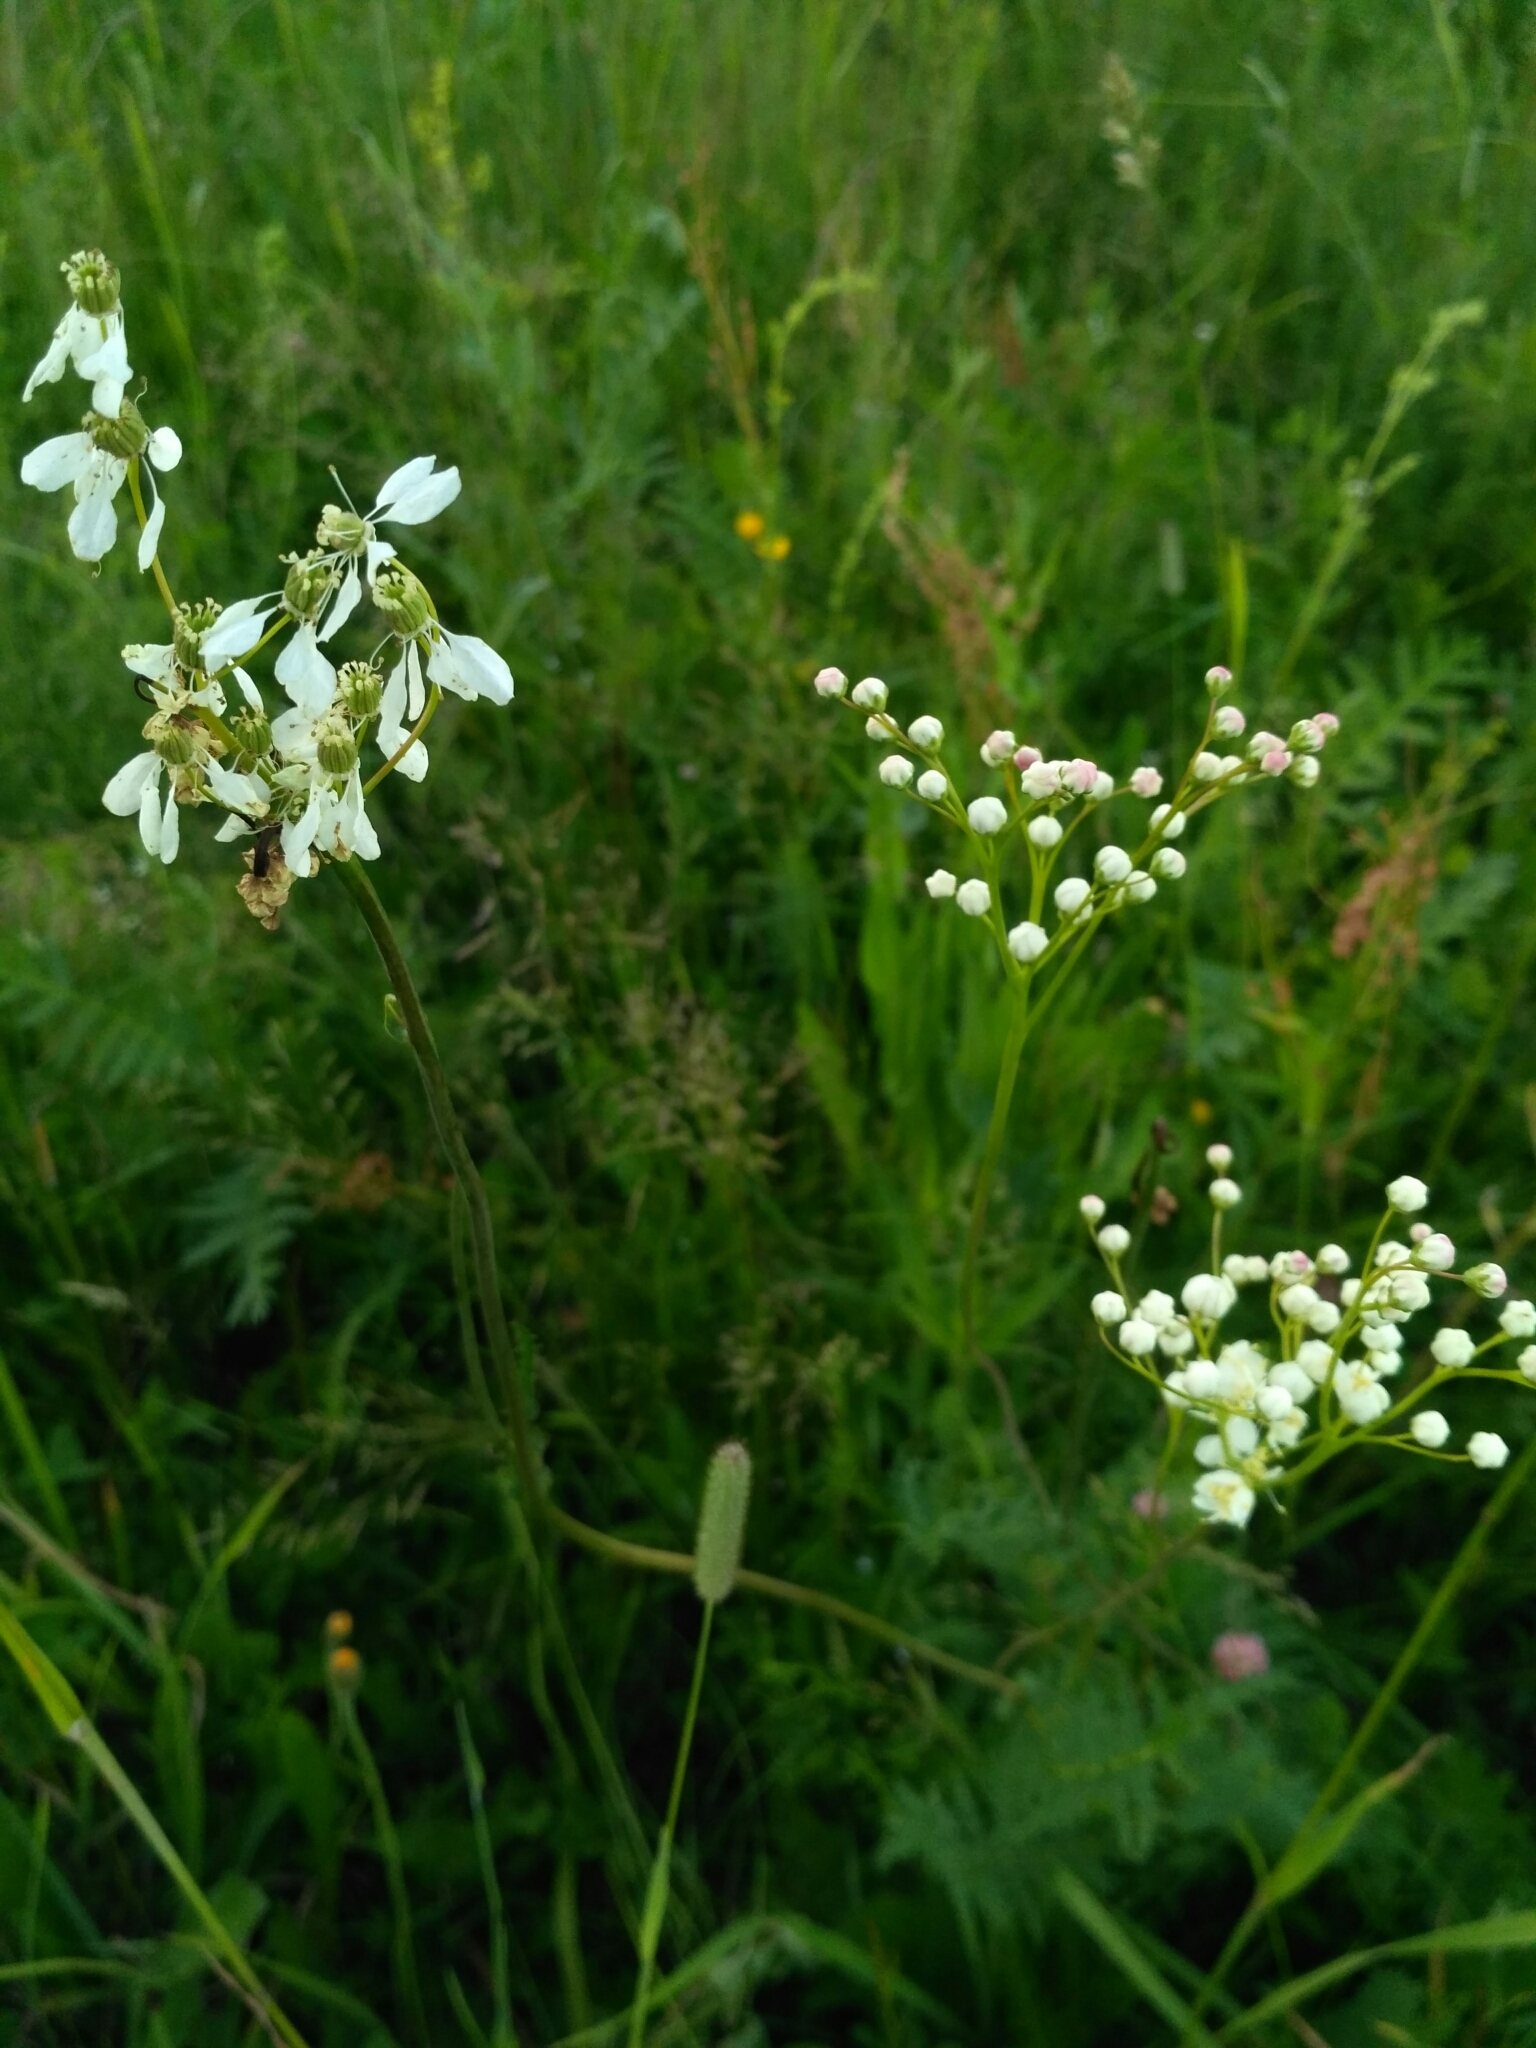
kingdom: Plantae
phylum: Tracheophyta
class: Magnoliopsida
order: Rosales
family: Rosaceae
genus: Filipendula
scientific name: Filipendula vulgaris
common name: Dropwort
